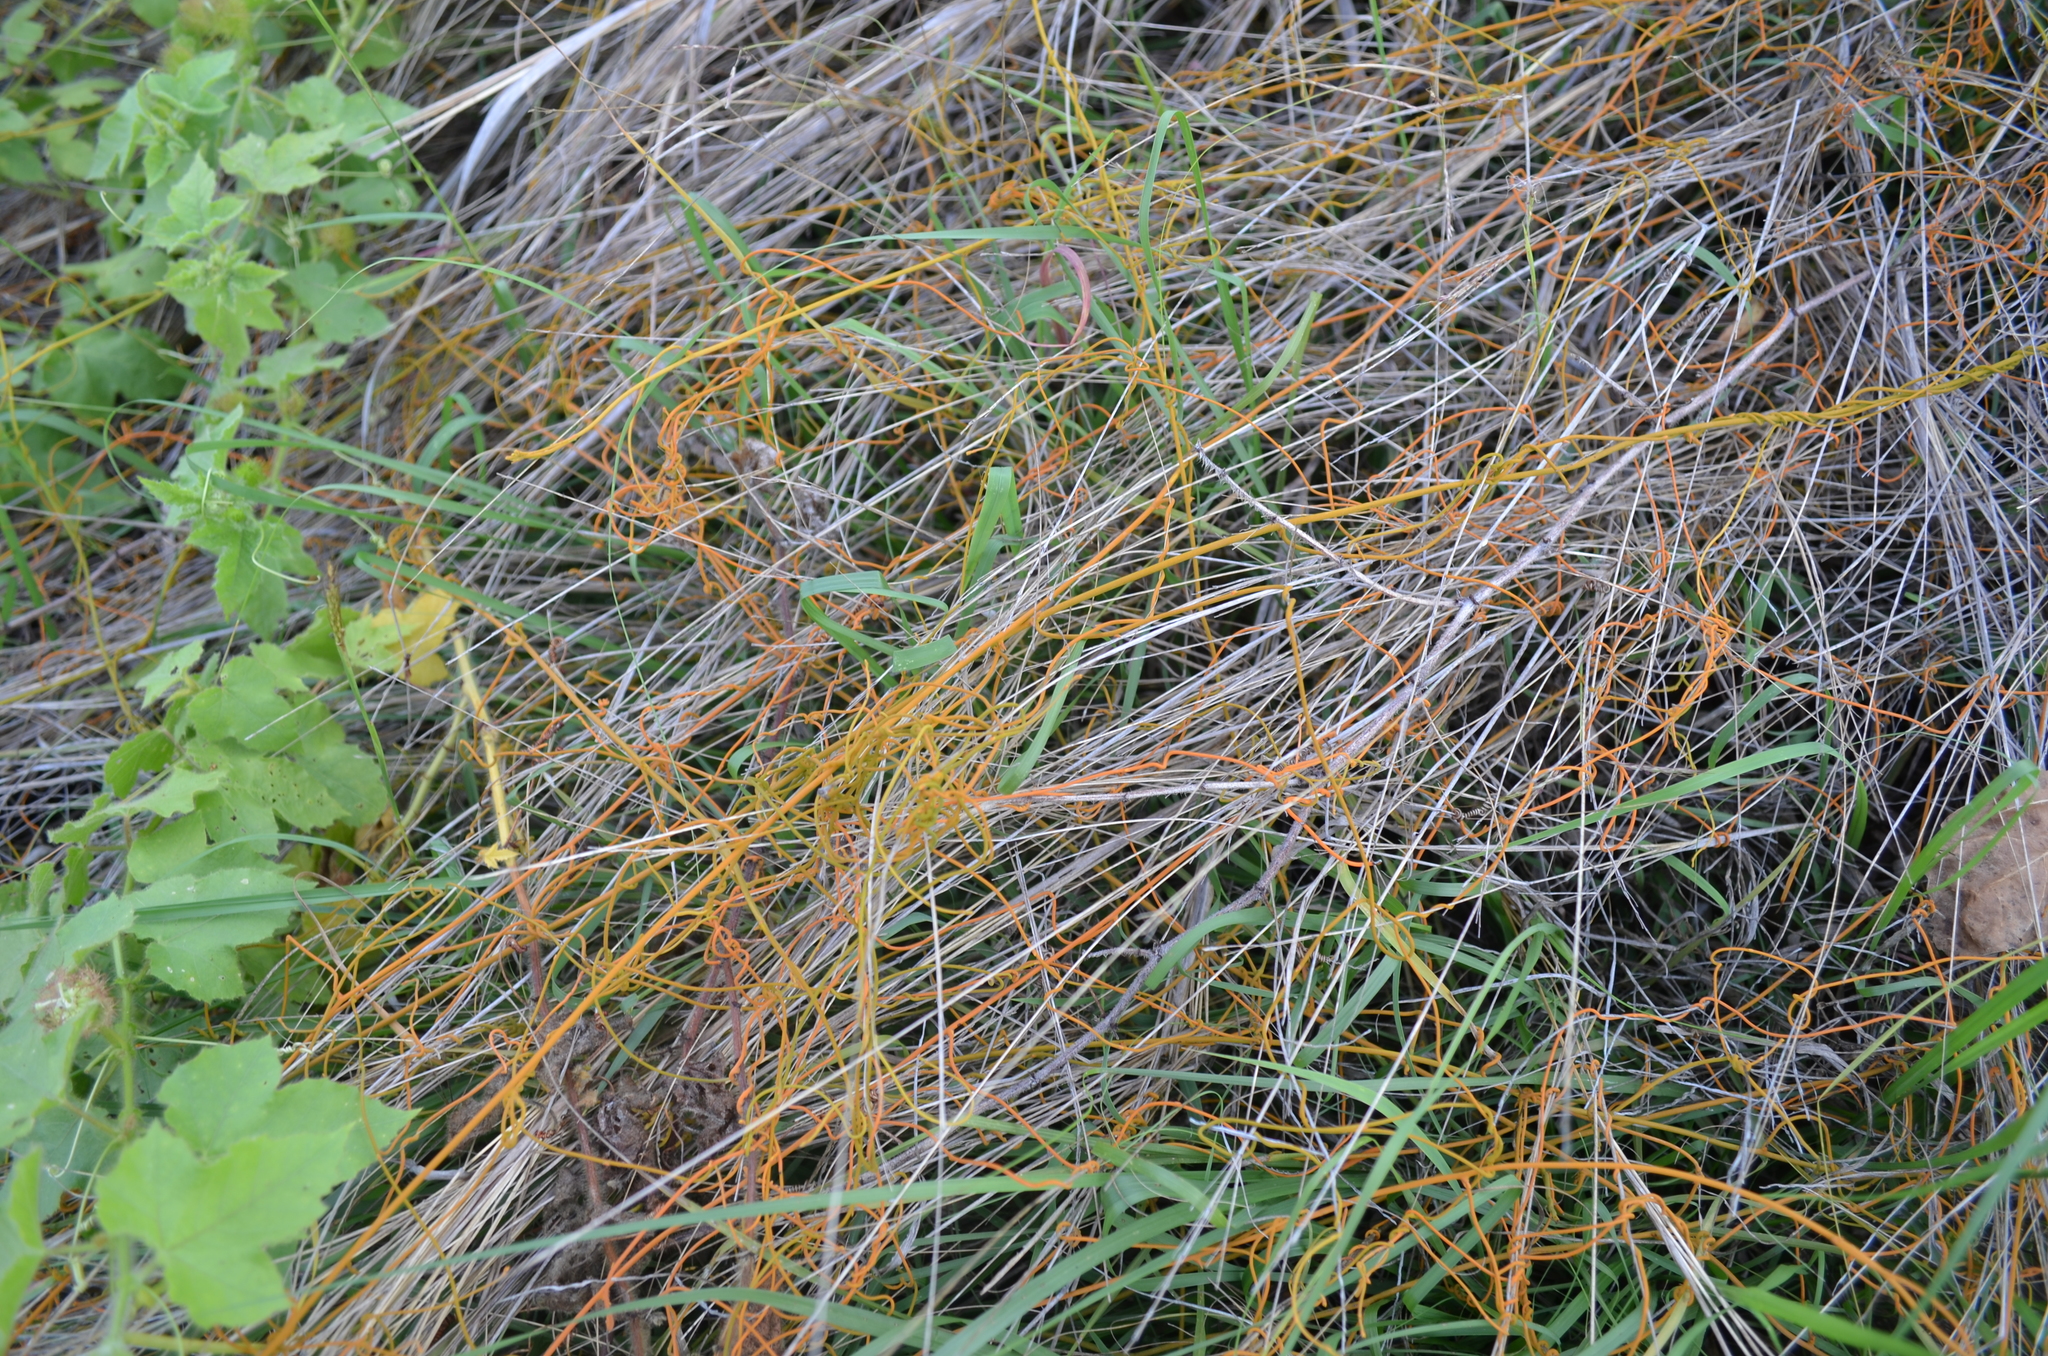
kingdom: Plantae
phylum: Tracheophyta
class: Magnoliopsida
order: Laurales
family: Lauraceae
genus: Cassytha
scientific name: Cassytha filiformis
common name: Dodder-laurel
